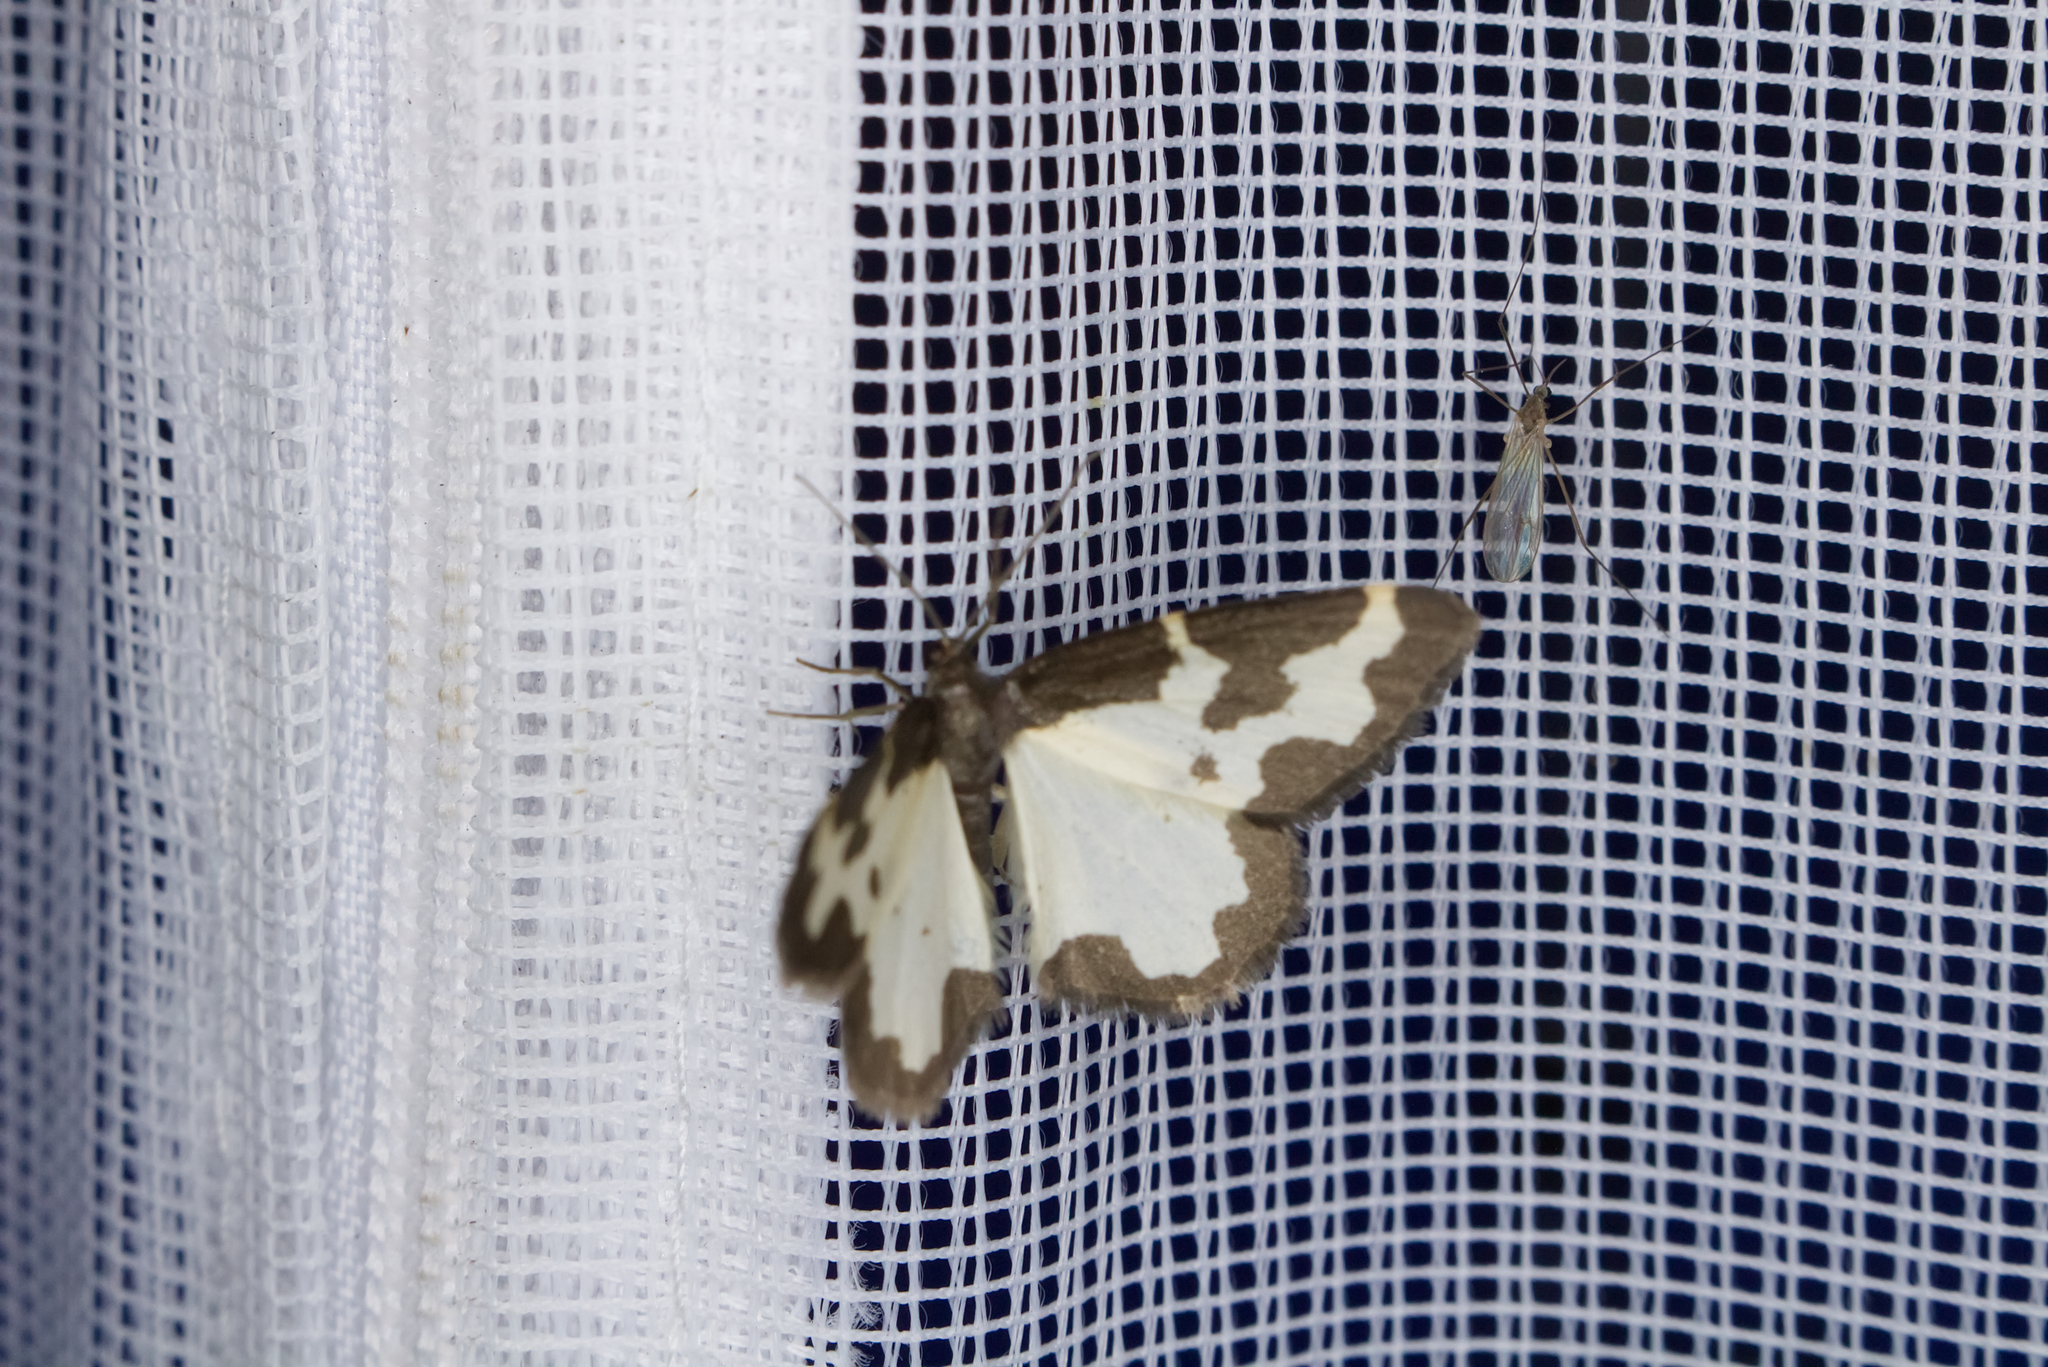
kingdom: Animalia
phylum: Arthropoda
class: Insecta
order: Lepidoptera
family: Geometridae
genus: Lomaspilis
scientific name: Lomaspilis marginata
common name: Clouded border
